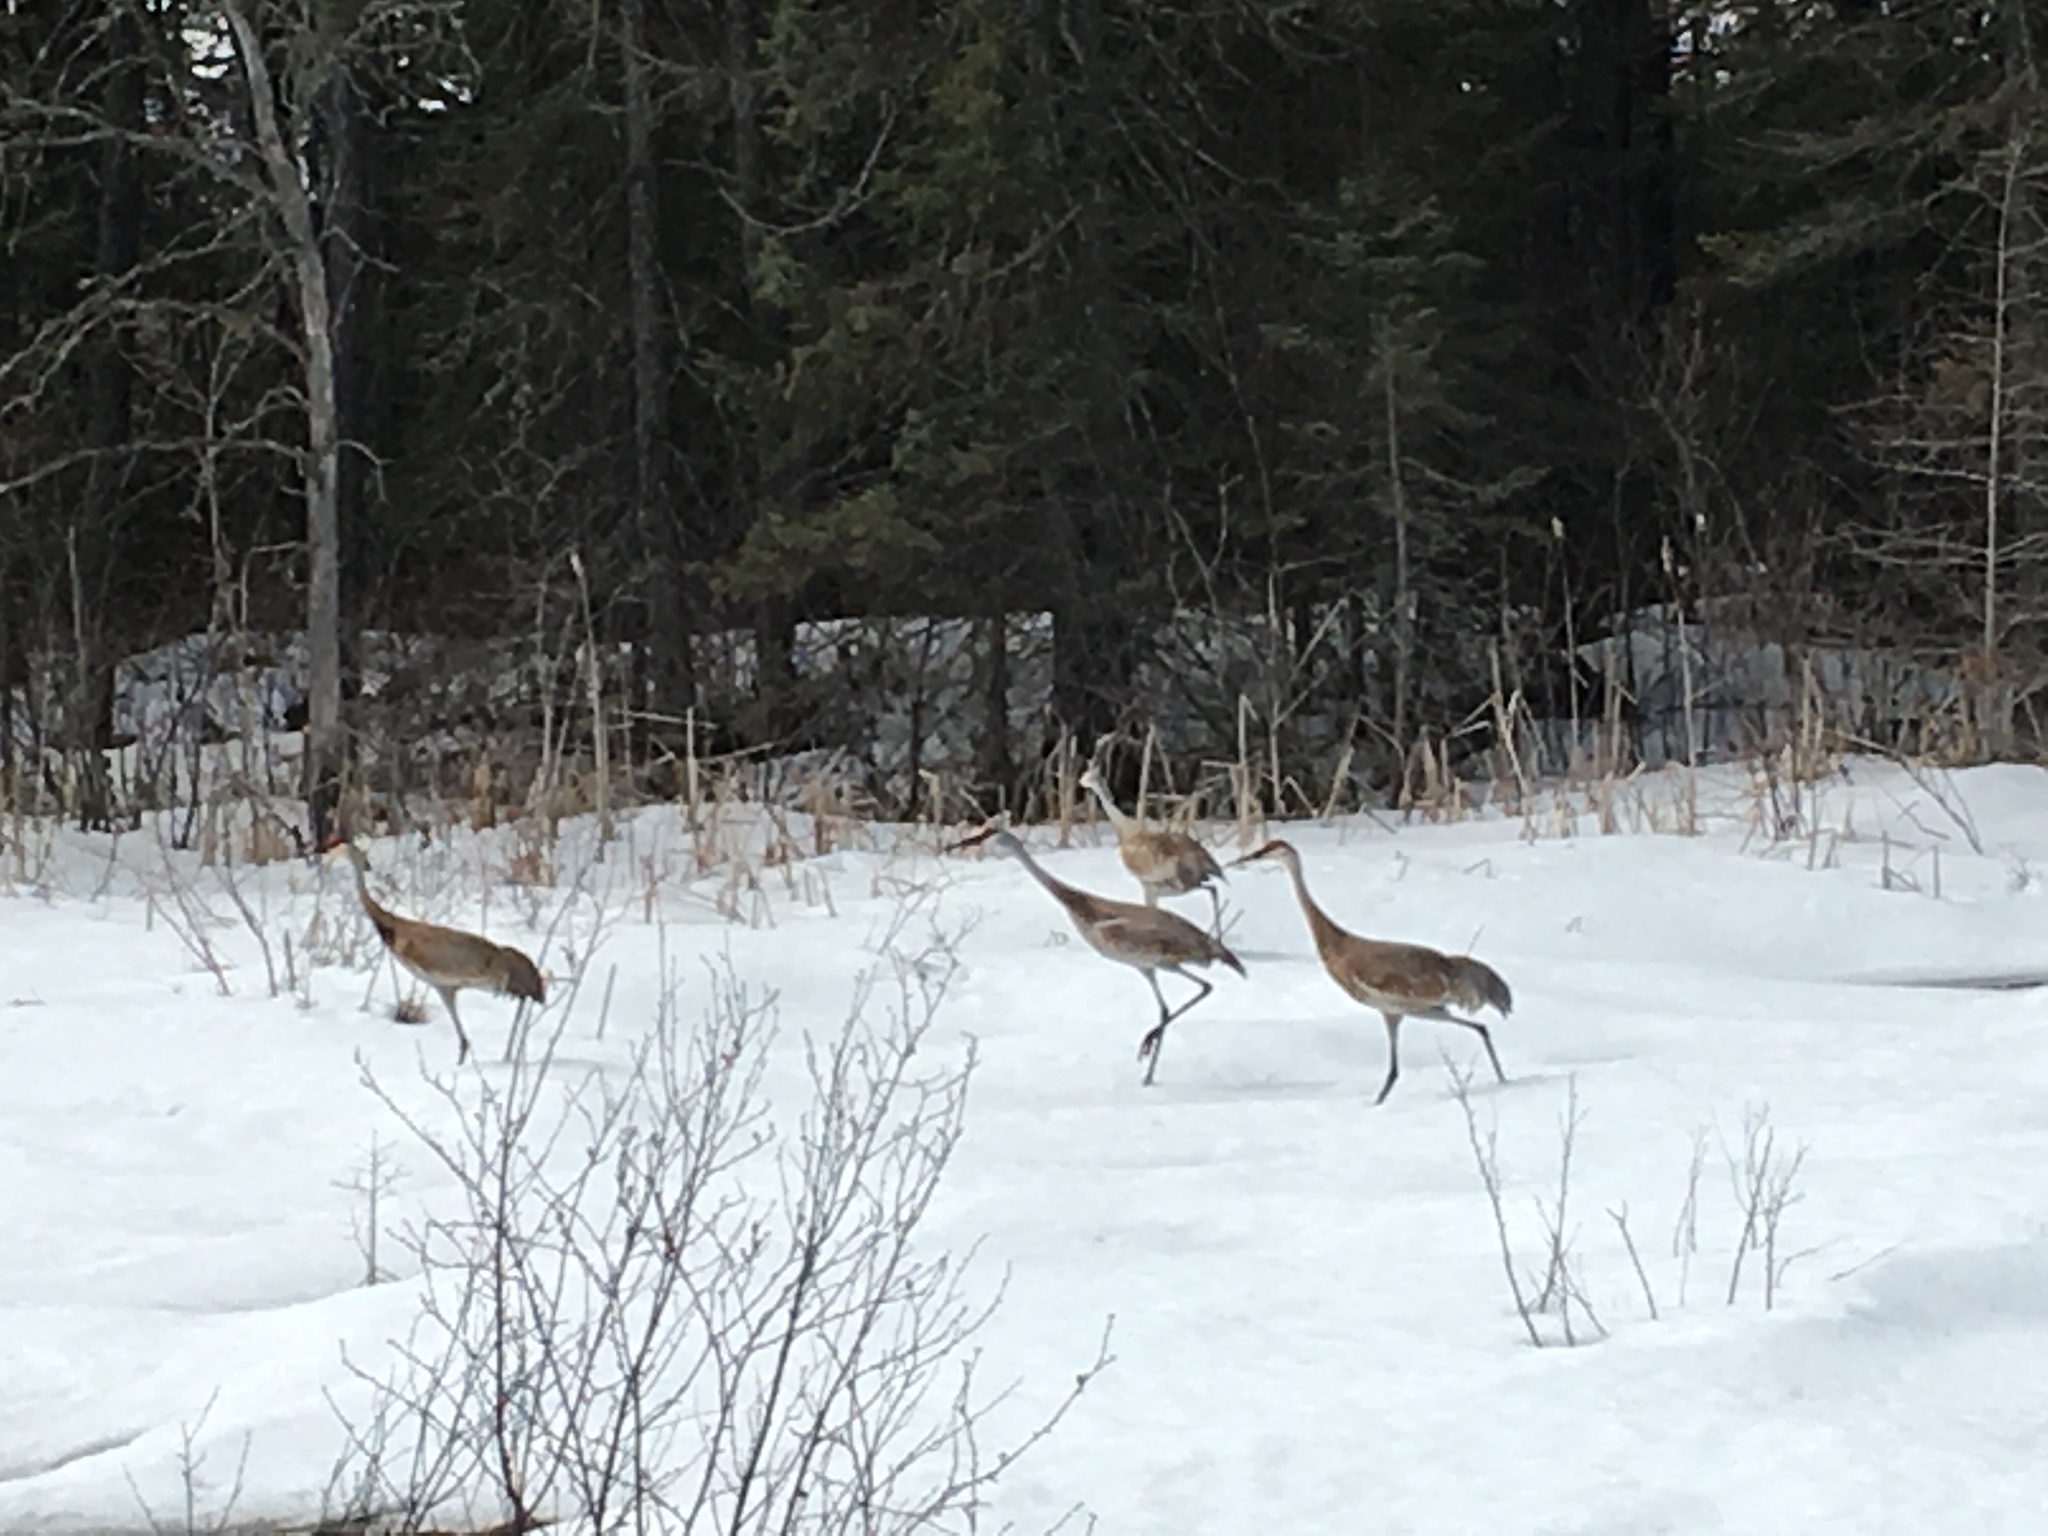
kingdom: Animalia
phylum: Chordata
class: Aves
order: Gruiformes
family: Gruidae
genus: Grus
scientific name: Grus canadensis
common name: Sandhill crane
